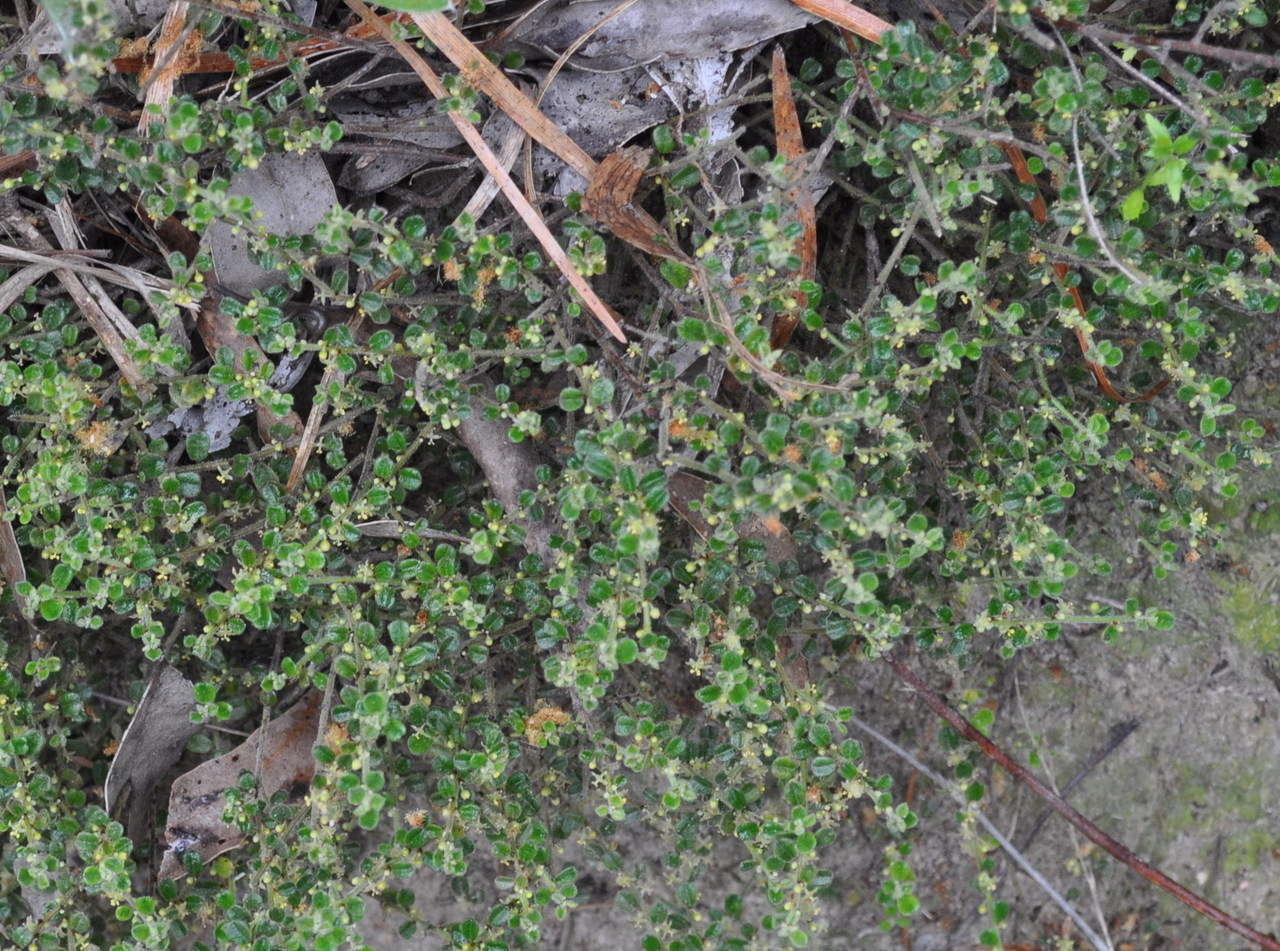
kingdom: Plantae
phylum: Tracheophyta
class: Magnoliopsida
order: Malpighiales
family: Phyllanthaceae
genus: Phyllanthus
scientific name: Phyllanthus hirtellus
